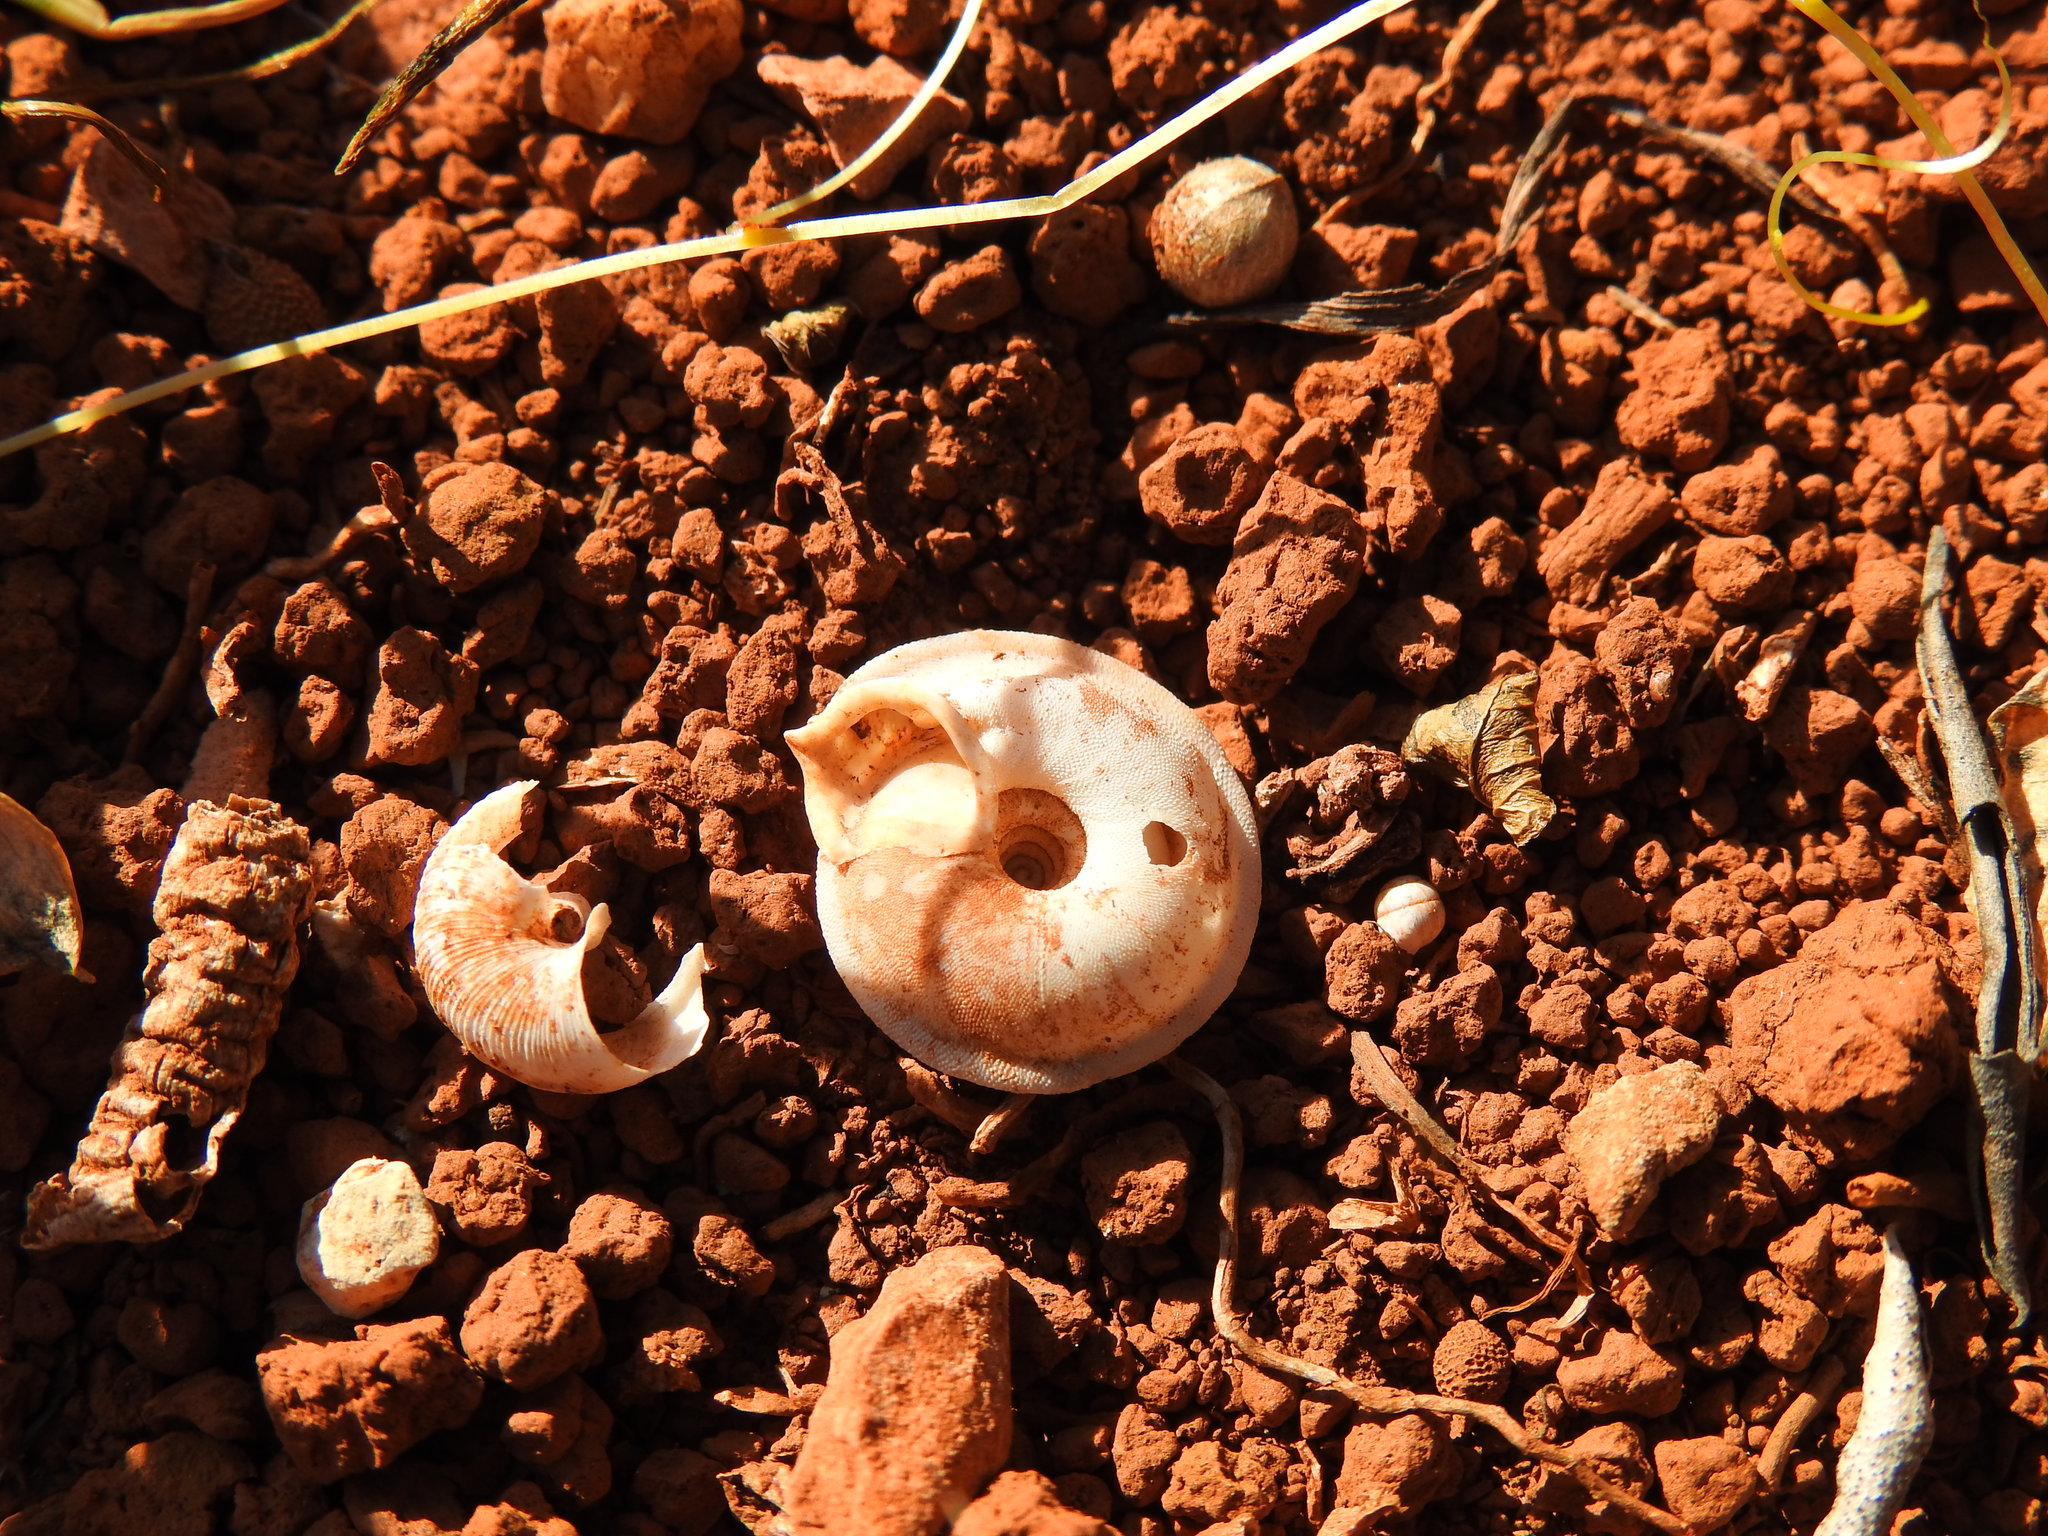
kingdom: Animalia
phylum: Mollusca
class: Gastropoda
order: Stylommatophora
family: Trissexodontidae
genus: Gittenbergeria
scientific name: Gittenbergeria turriplana
